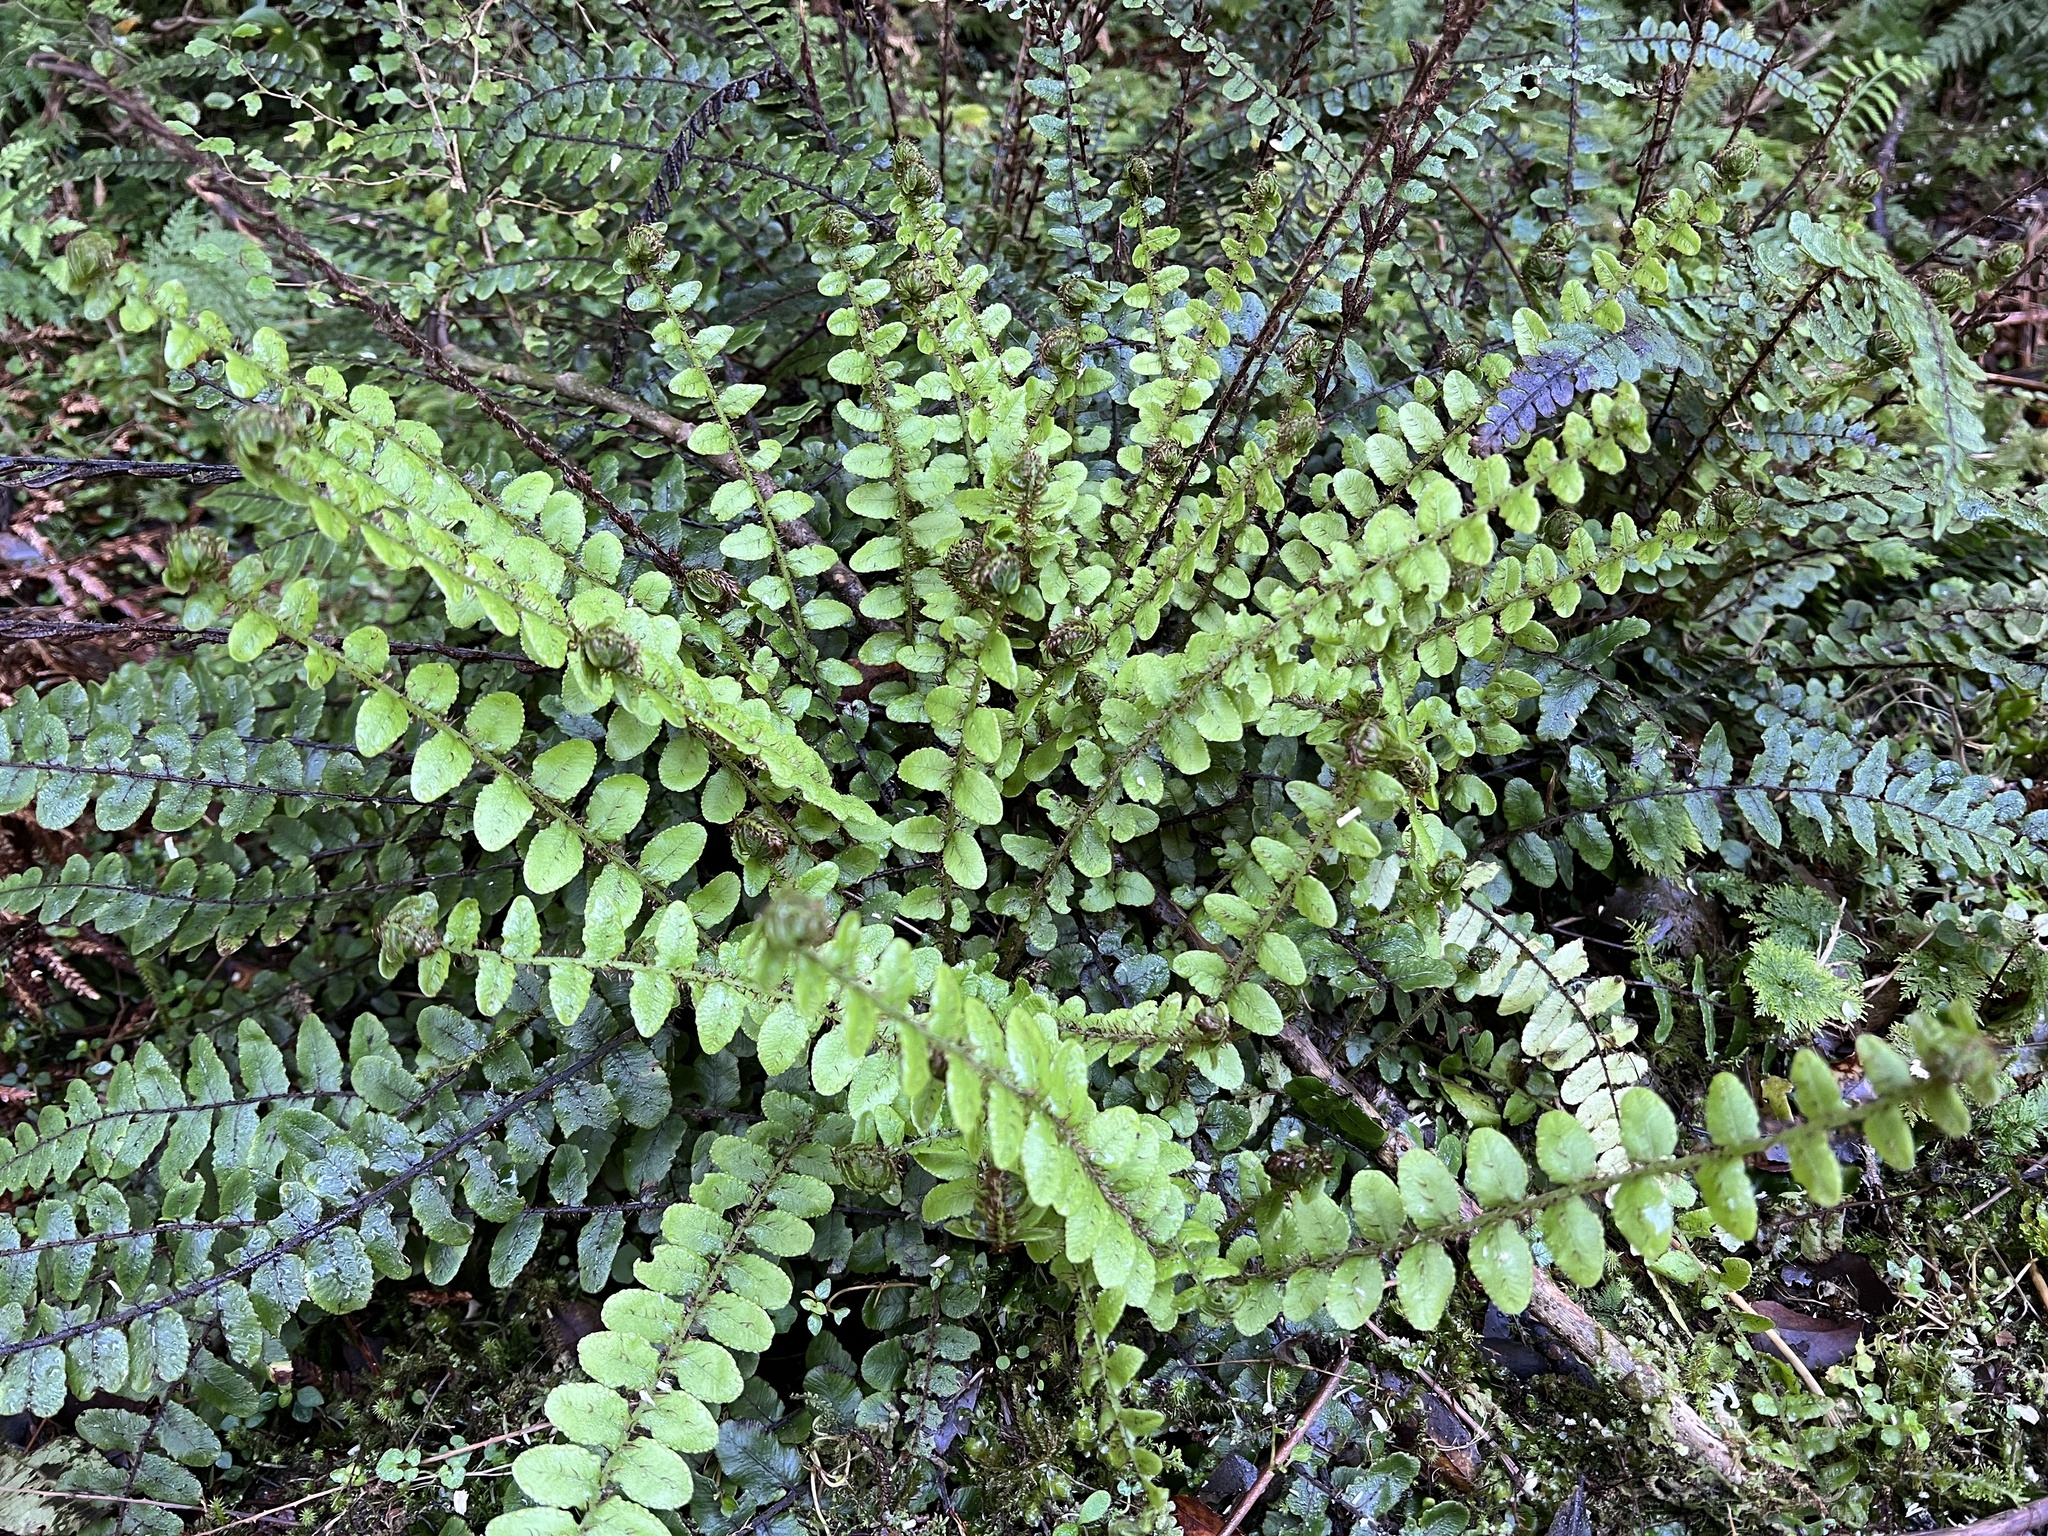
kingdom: Plantae
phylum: Tracheophyta
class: Polypodiopsida
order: Polypodiales
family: Blechnaceae
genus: Cranfillia
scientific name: Cranfillia fluviatilis
